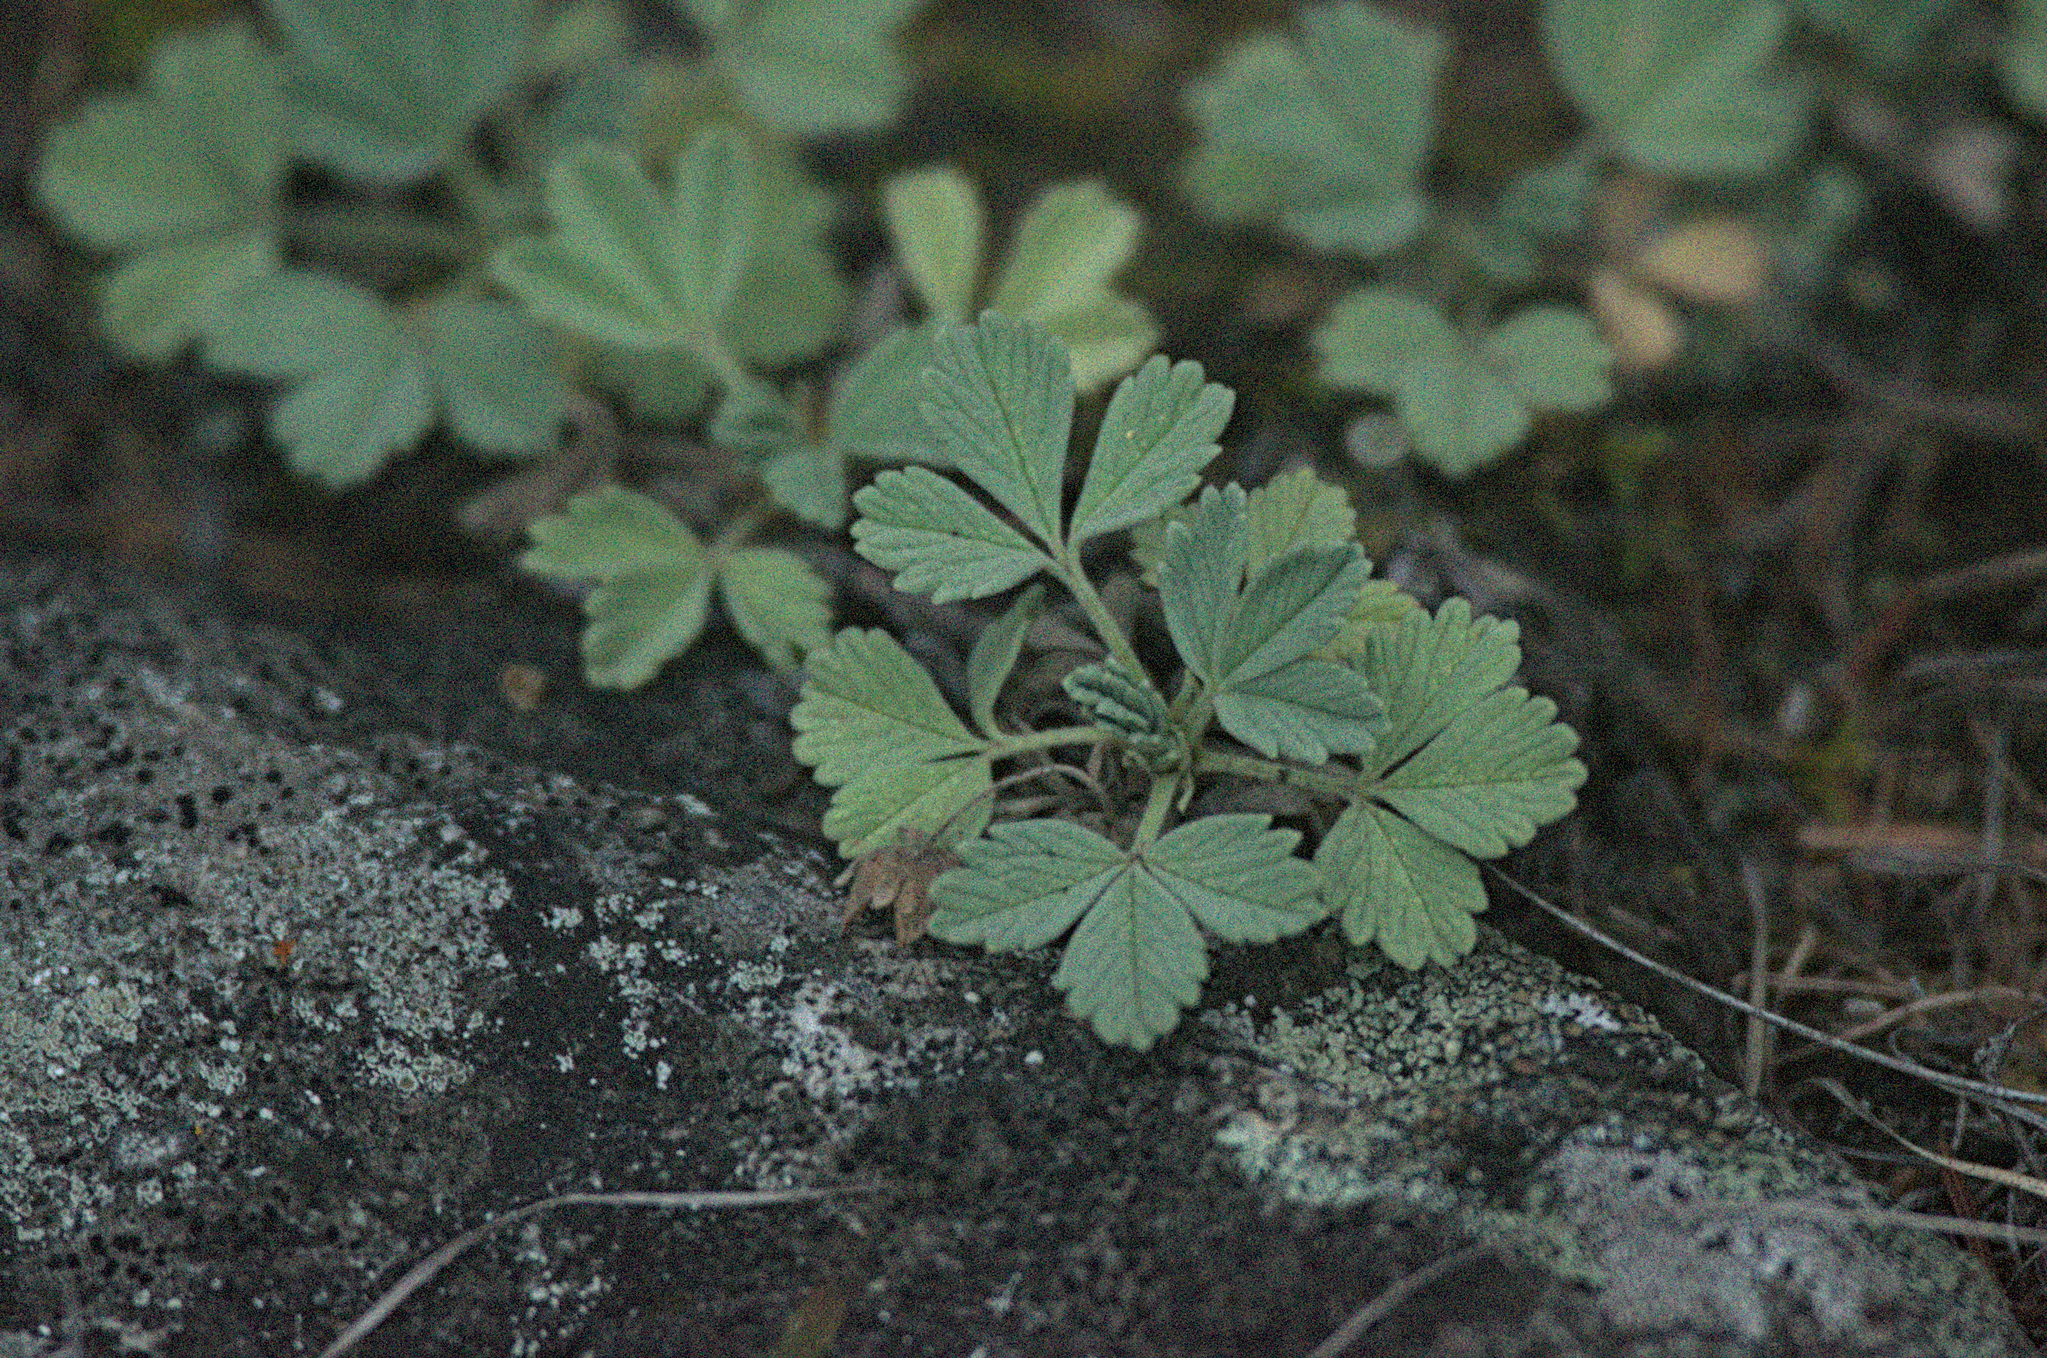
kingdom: Plantae
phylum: Tracheophyta
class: Magnoliopsida
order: Rosales
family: Rosaceae
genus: Potentilla
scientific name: Potentilla acaulis
